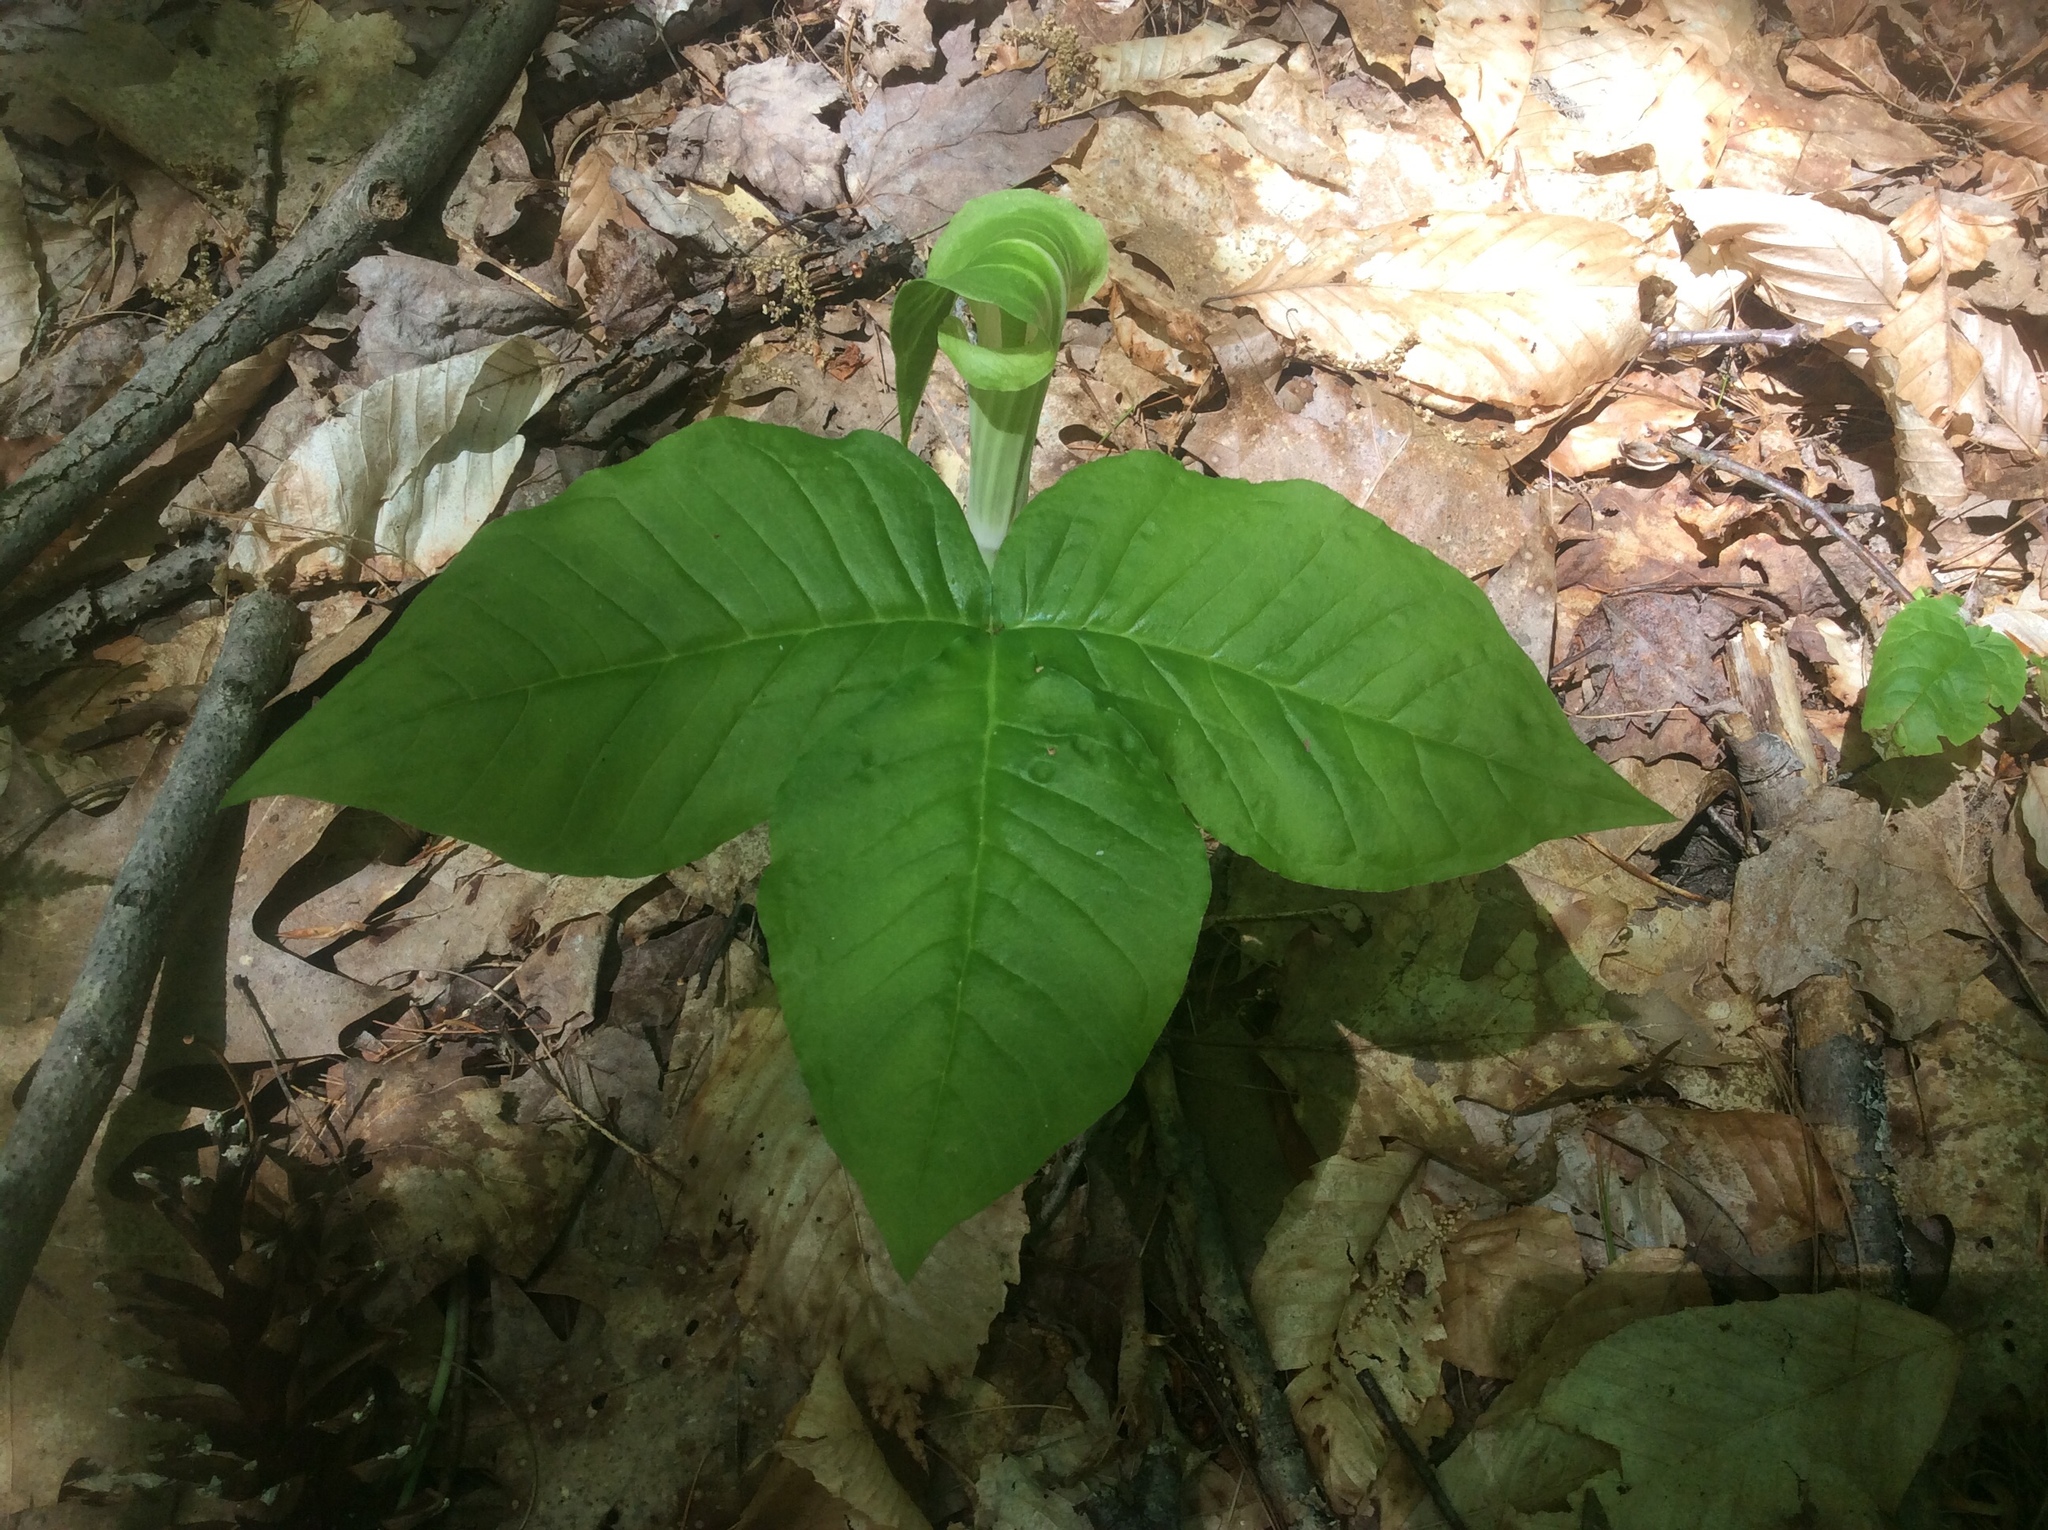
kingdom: Plantae
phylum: Tracheophyta
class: Liliopsida
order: Alismatales
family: Araceae
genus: Arisaema
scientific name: Arisaema triphyllum
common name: Jack-in-the-pulpit
